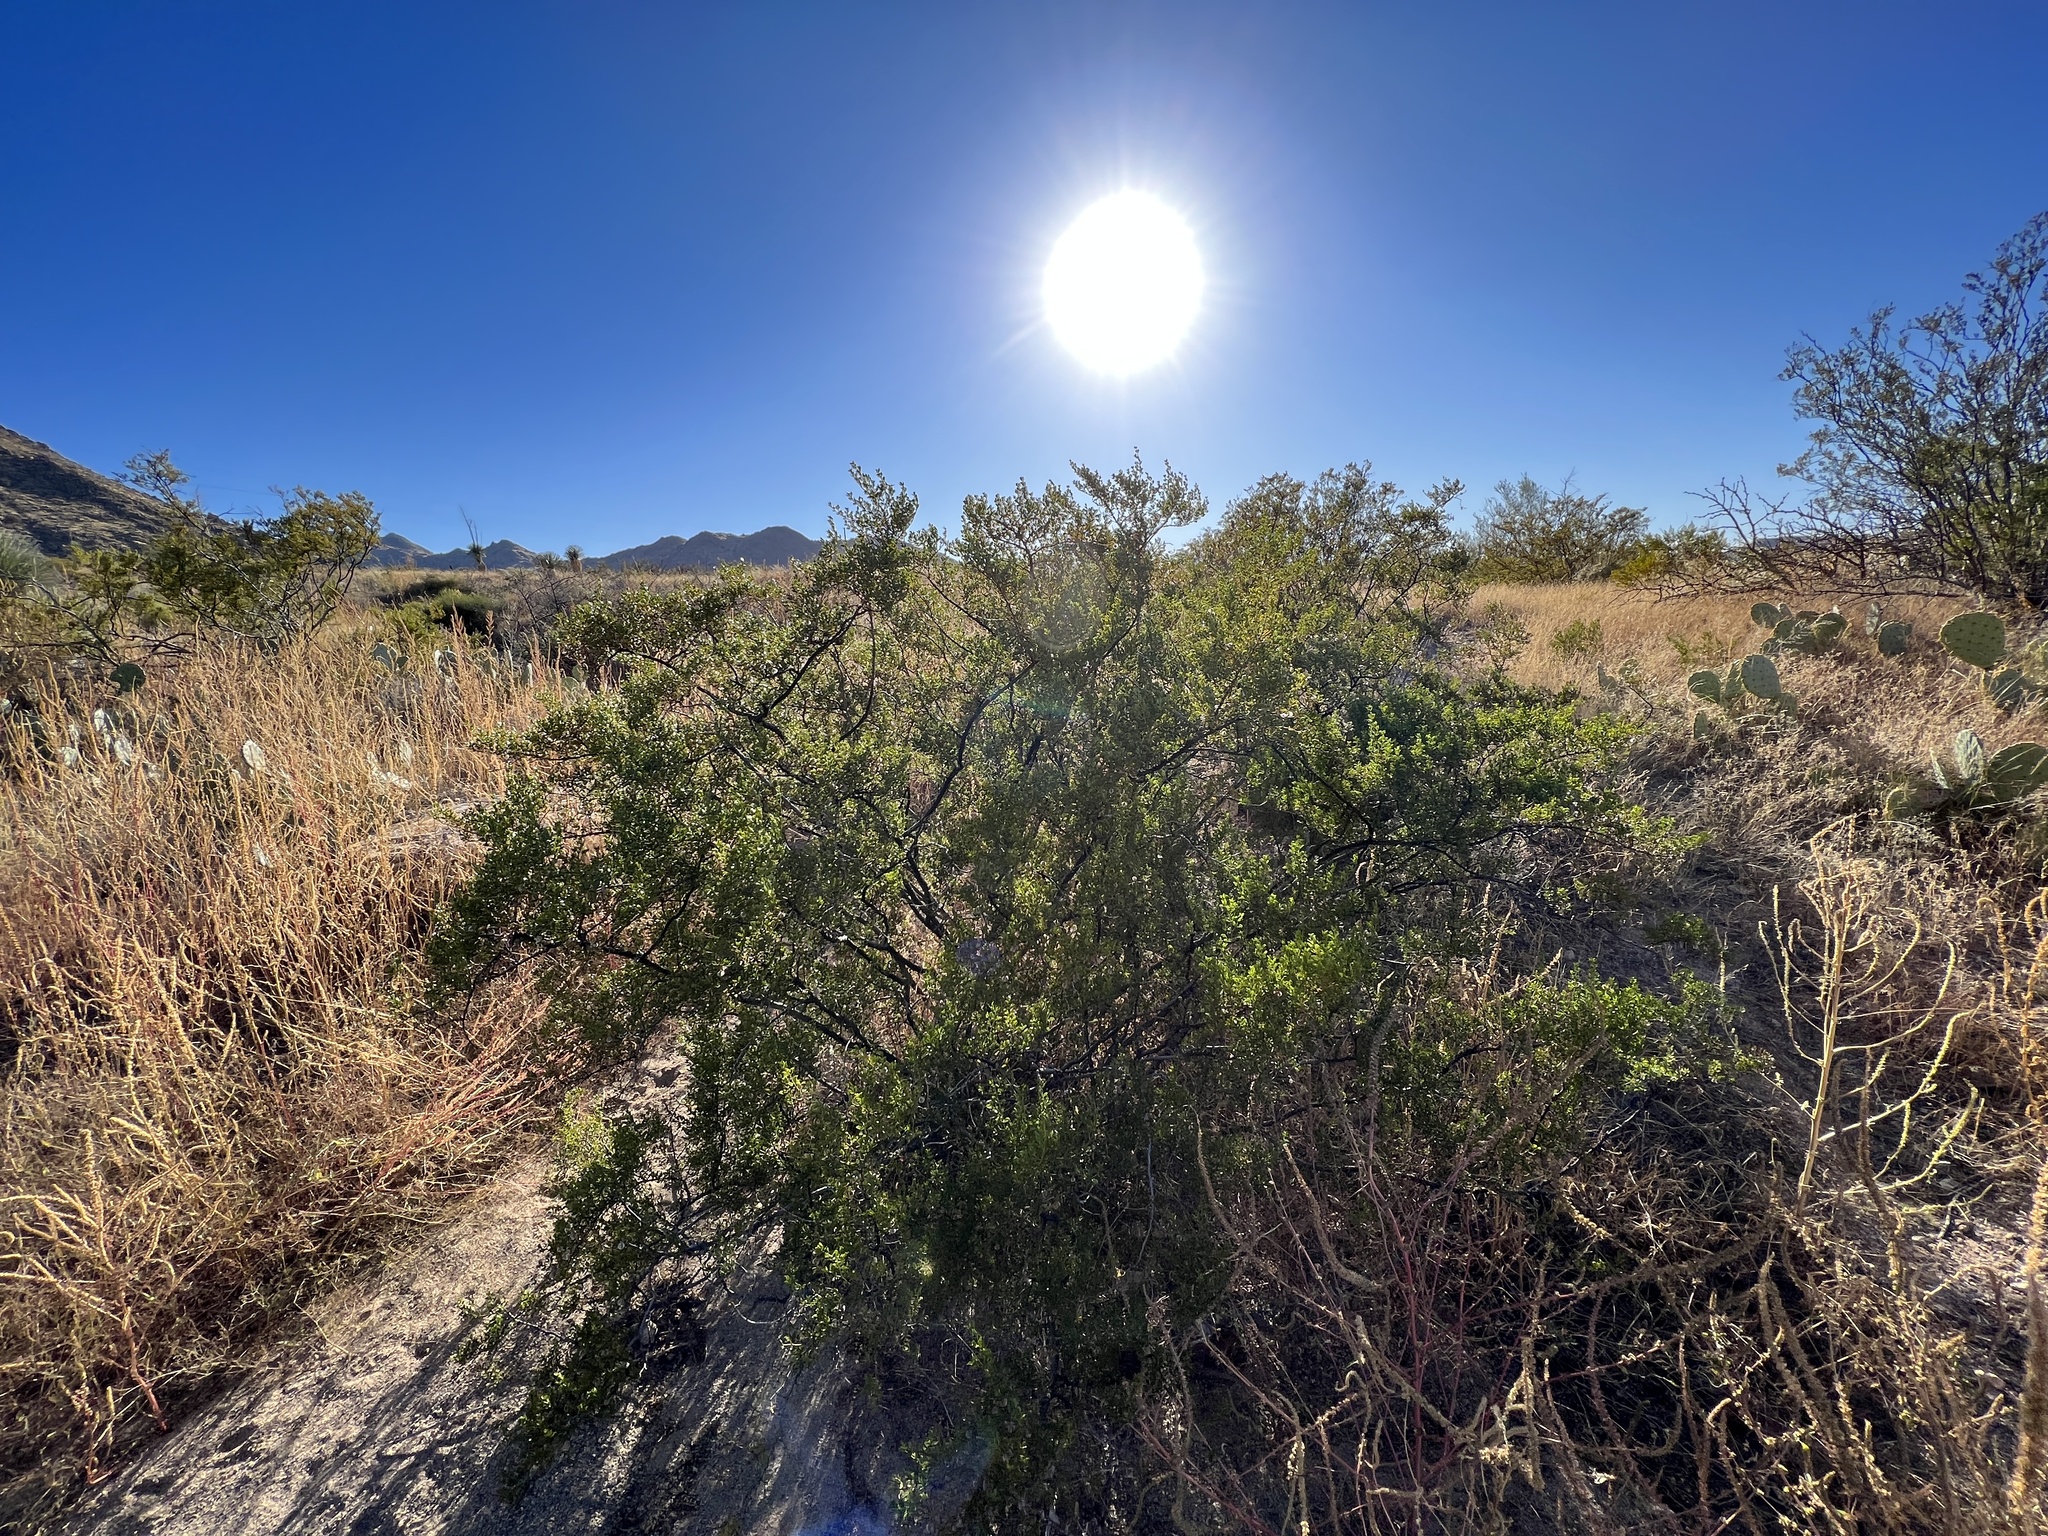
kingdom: Plantae
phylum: Tracheophyta
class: Magnoliopsida
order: Zygophyllales
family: Zygophyllaceae
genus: Larrea
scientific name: Larrea tridentata
